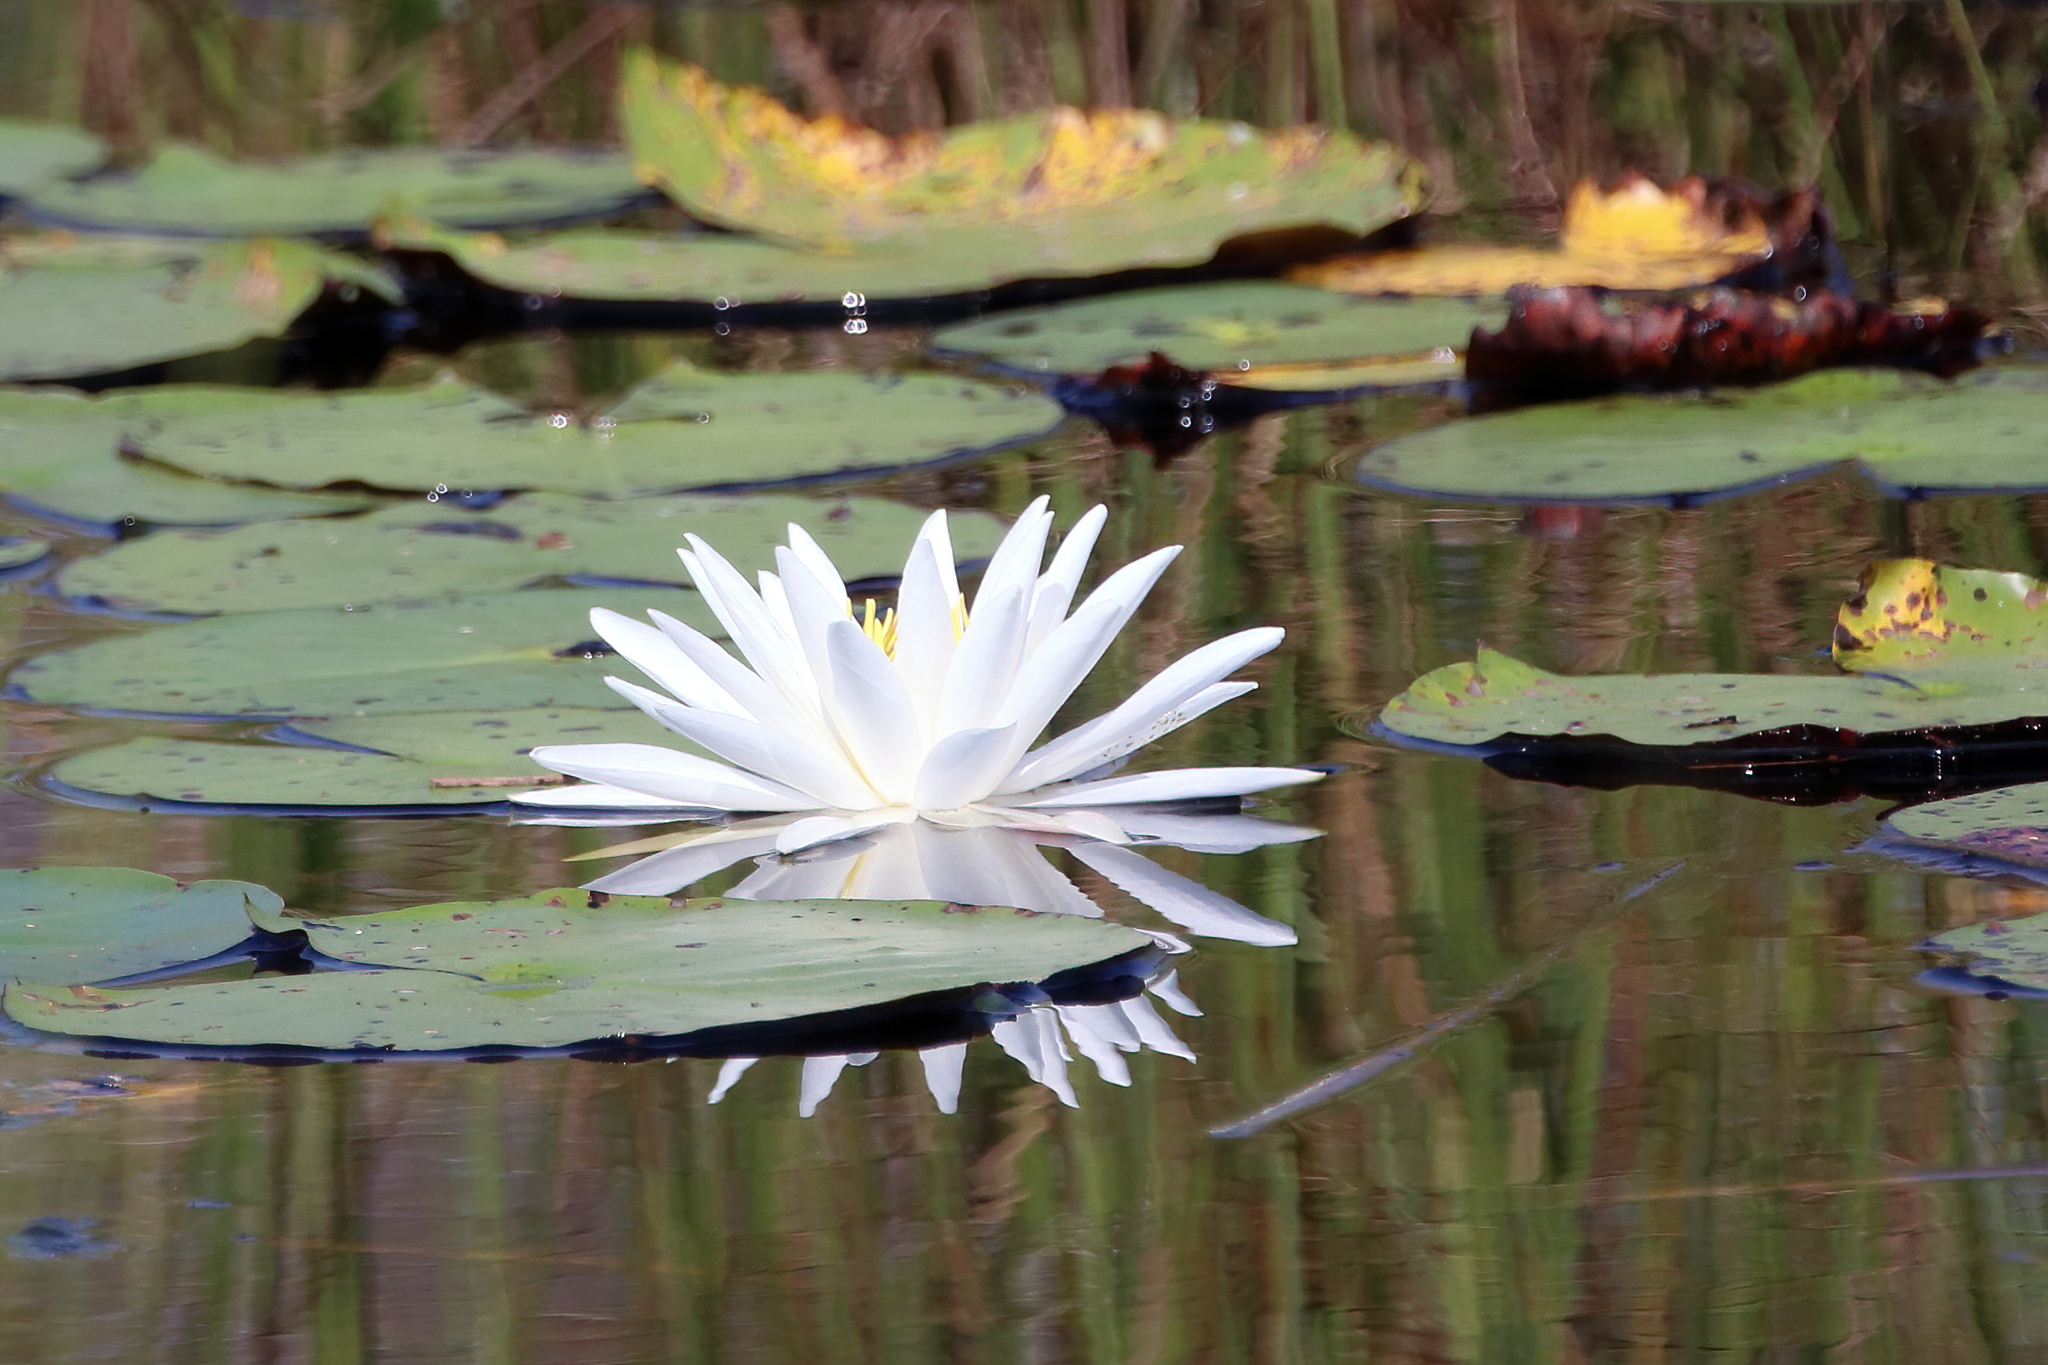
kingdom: Plantae
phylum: Tracheophyta
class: Magnoliopsida
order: Nymphaeales
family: Nymphaeaceae
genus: Nymphaea
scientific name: Nymphaea odorata
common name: Fragrant water-lily
